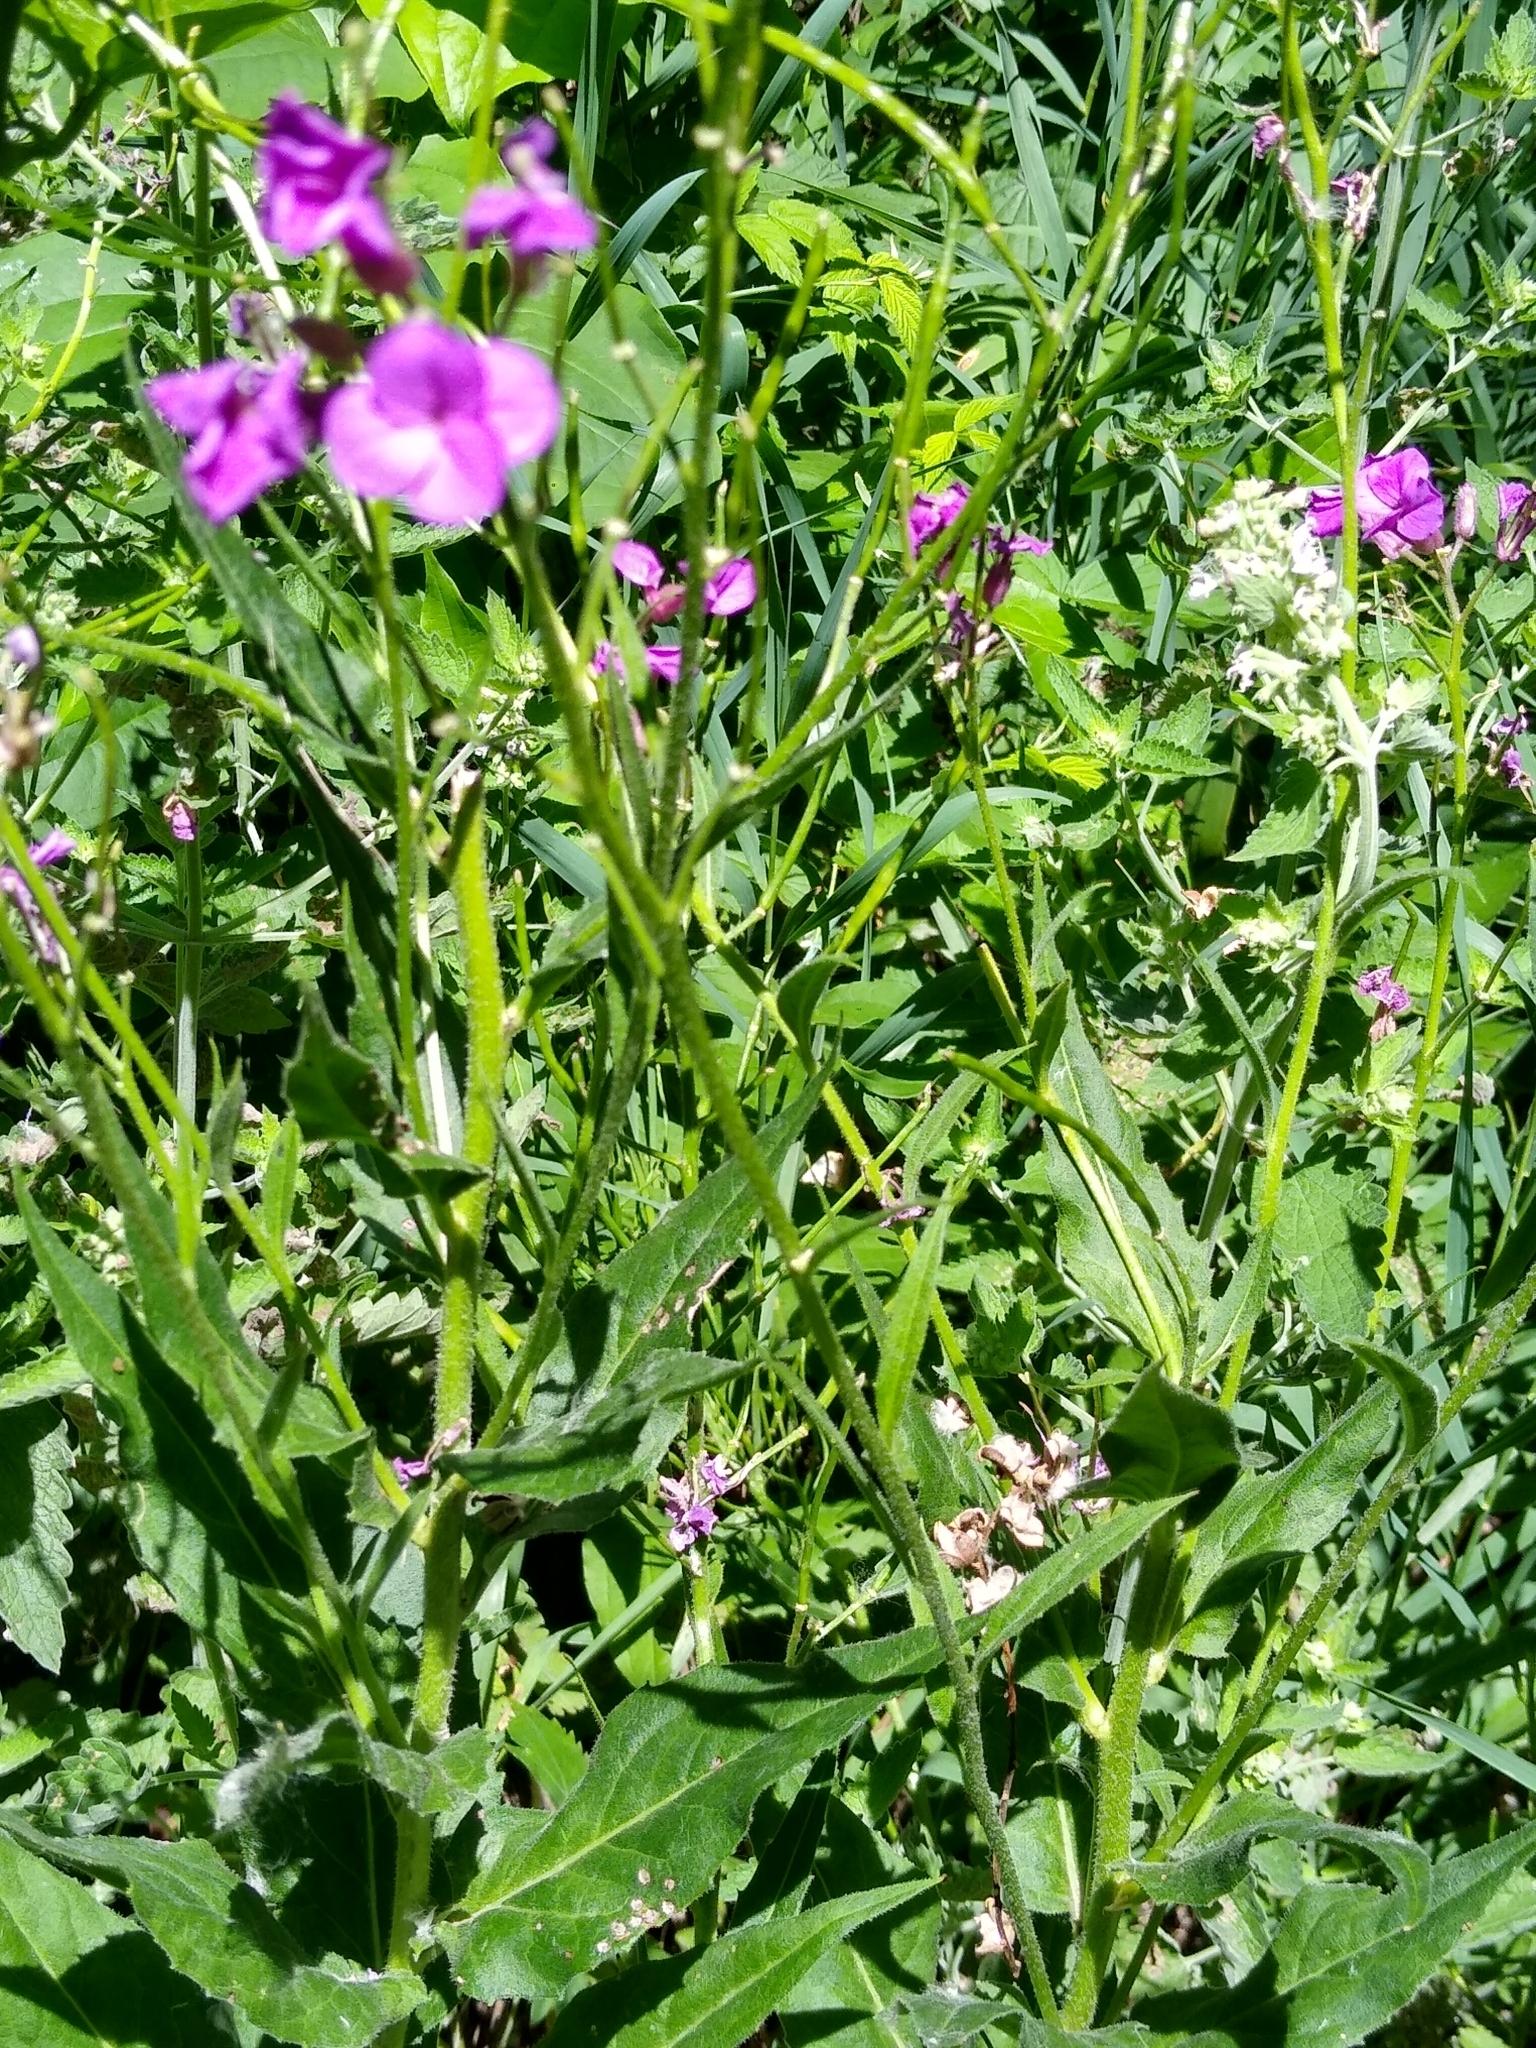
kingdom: Plantae
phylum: Tracheophyta
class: Magnoliopsida
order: Brassicales
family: Brassicaceae
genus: Hesperis
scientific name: Hesperis matronalis
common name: Dame's-violet
